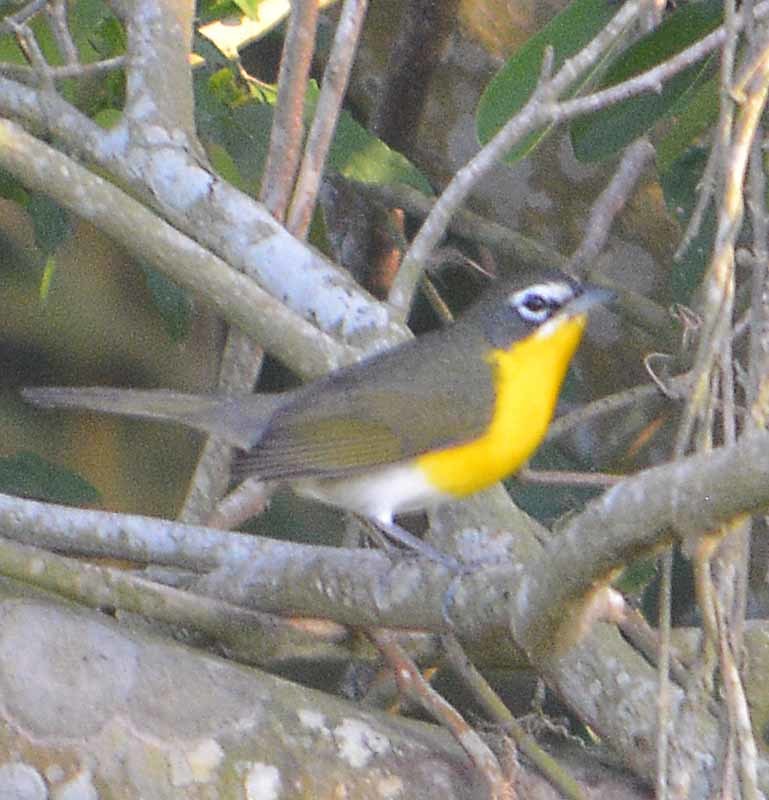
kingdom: Animalia
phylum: Chordata
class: Aves
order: Passeriformes
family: Parulidae
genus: Icteria
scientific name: Icteria virens
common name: Yellow-breasted chat
